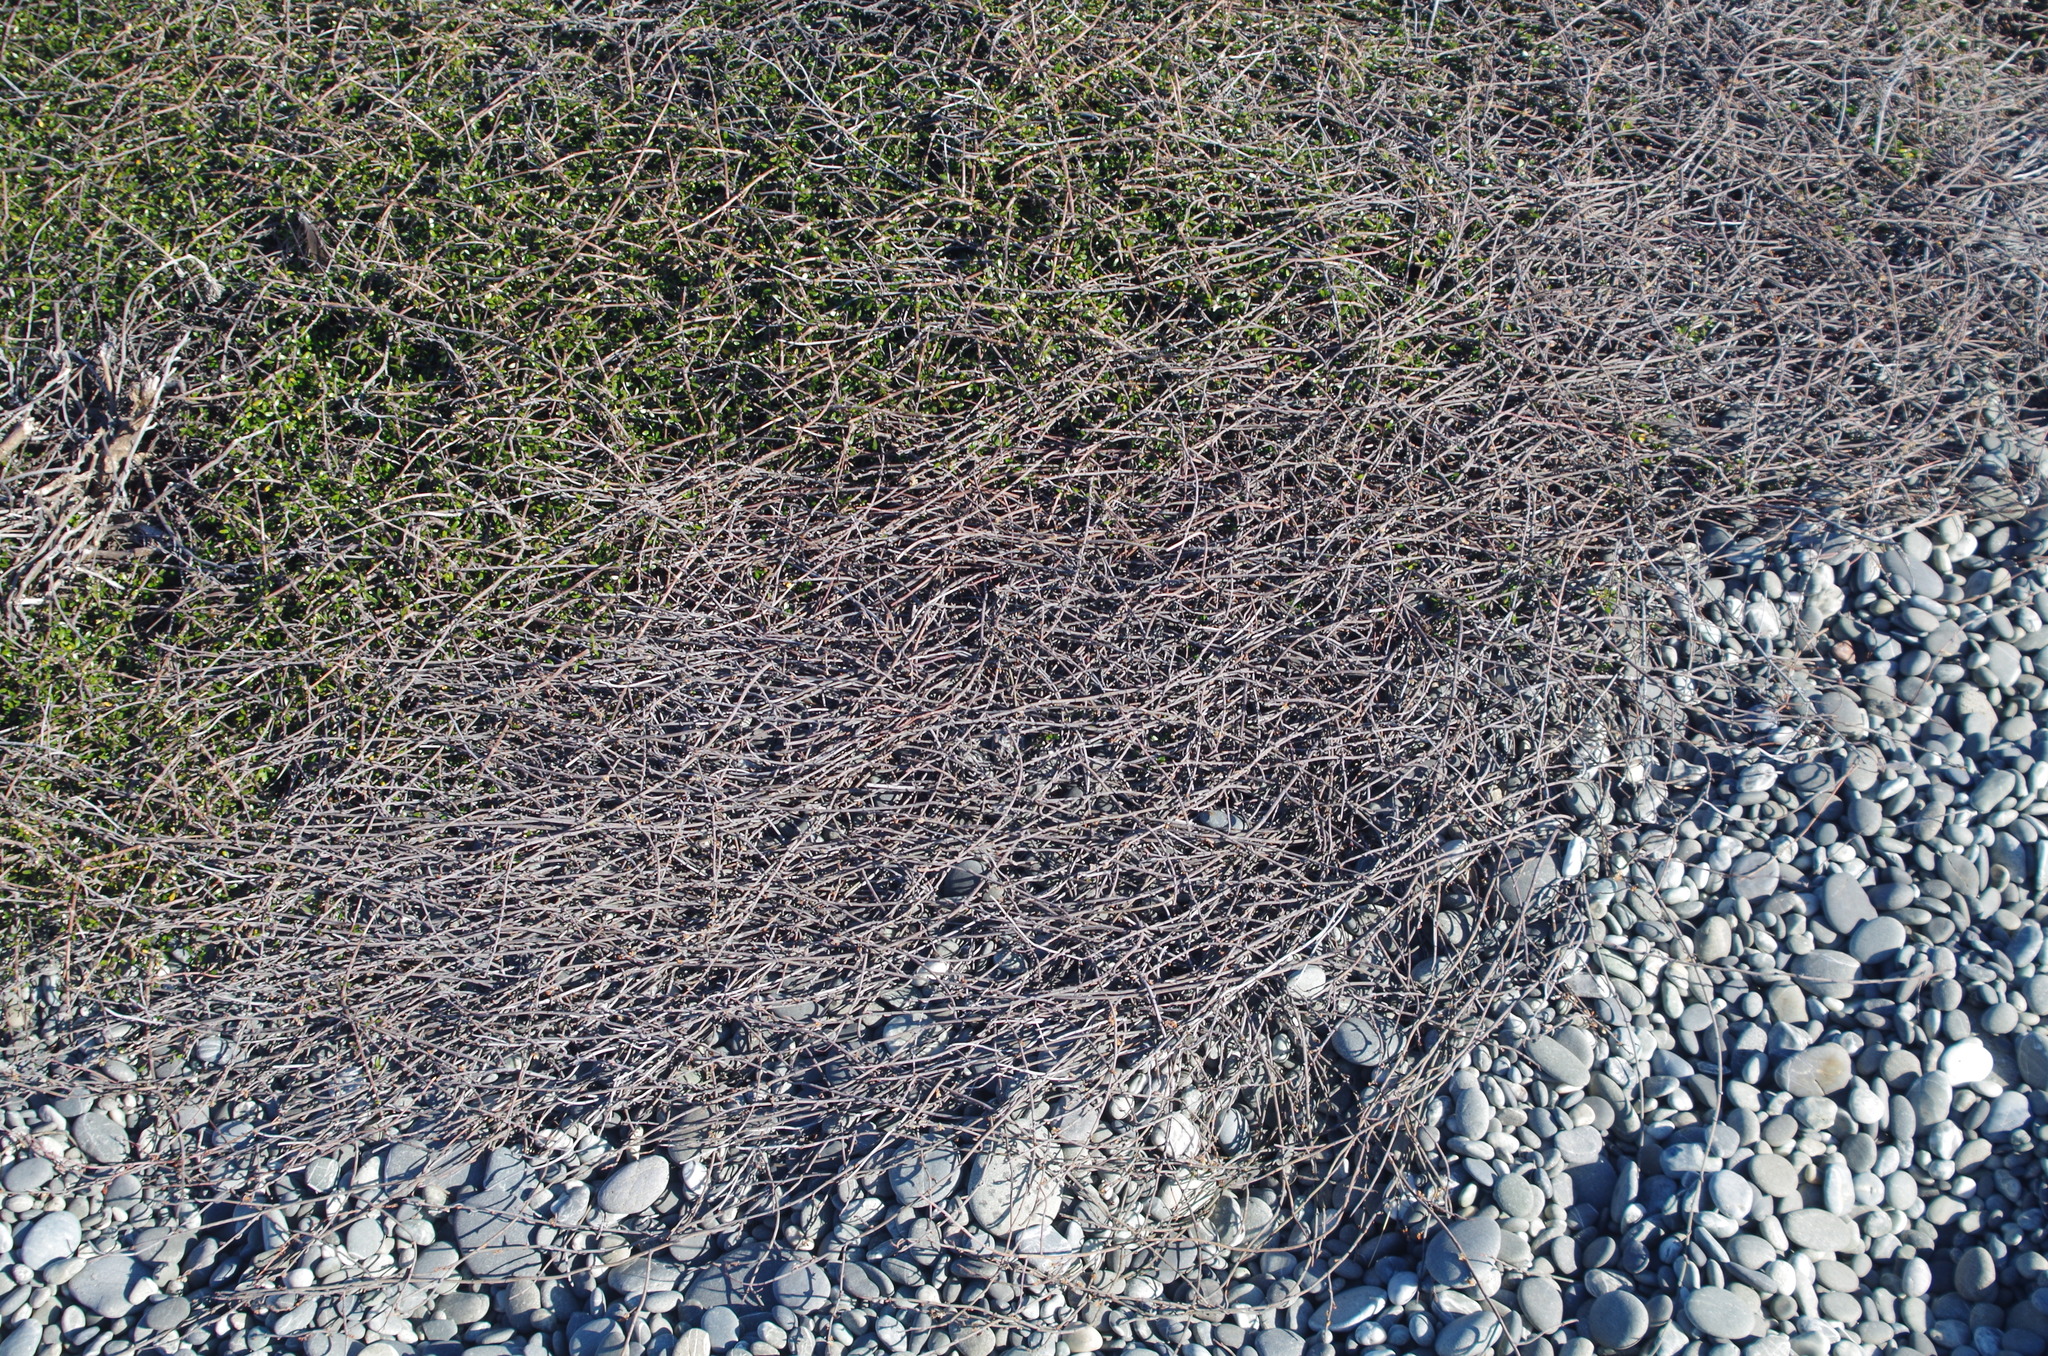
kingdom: Plantae
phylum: Tracheophyta
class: Magnoliopsida
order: Caryophyllales
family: Polygonaceae
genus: Muehlenbeckia
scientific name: Muehlenbeckia ephedroides
